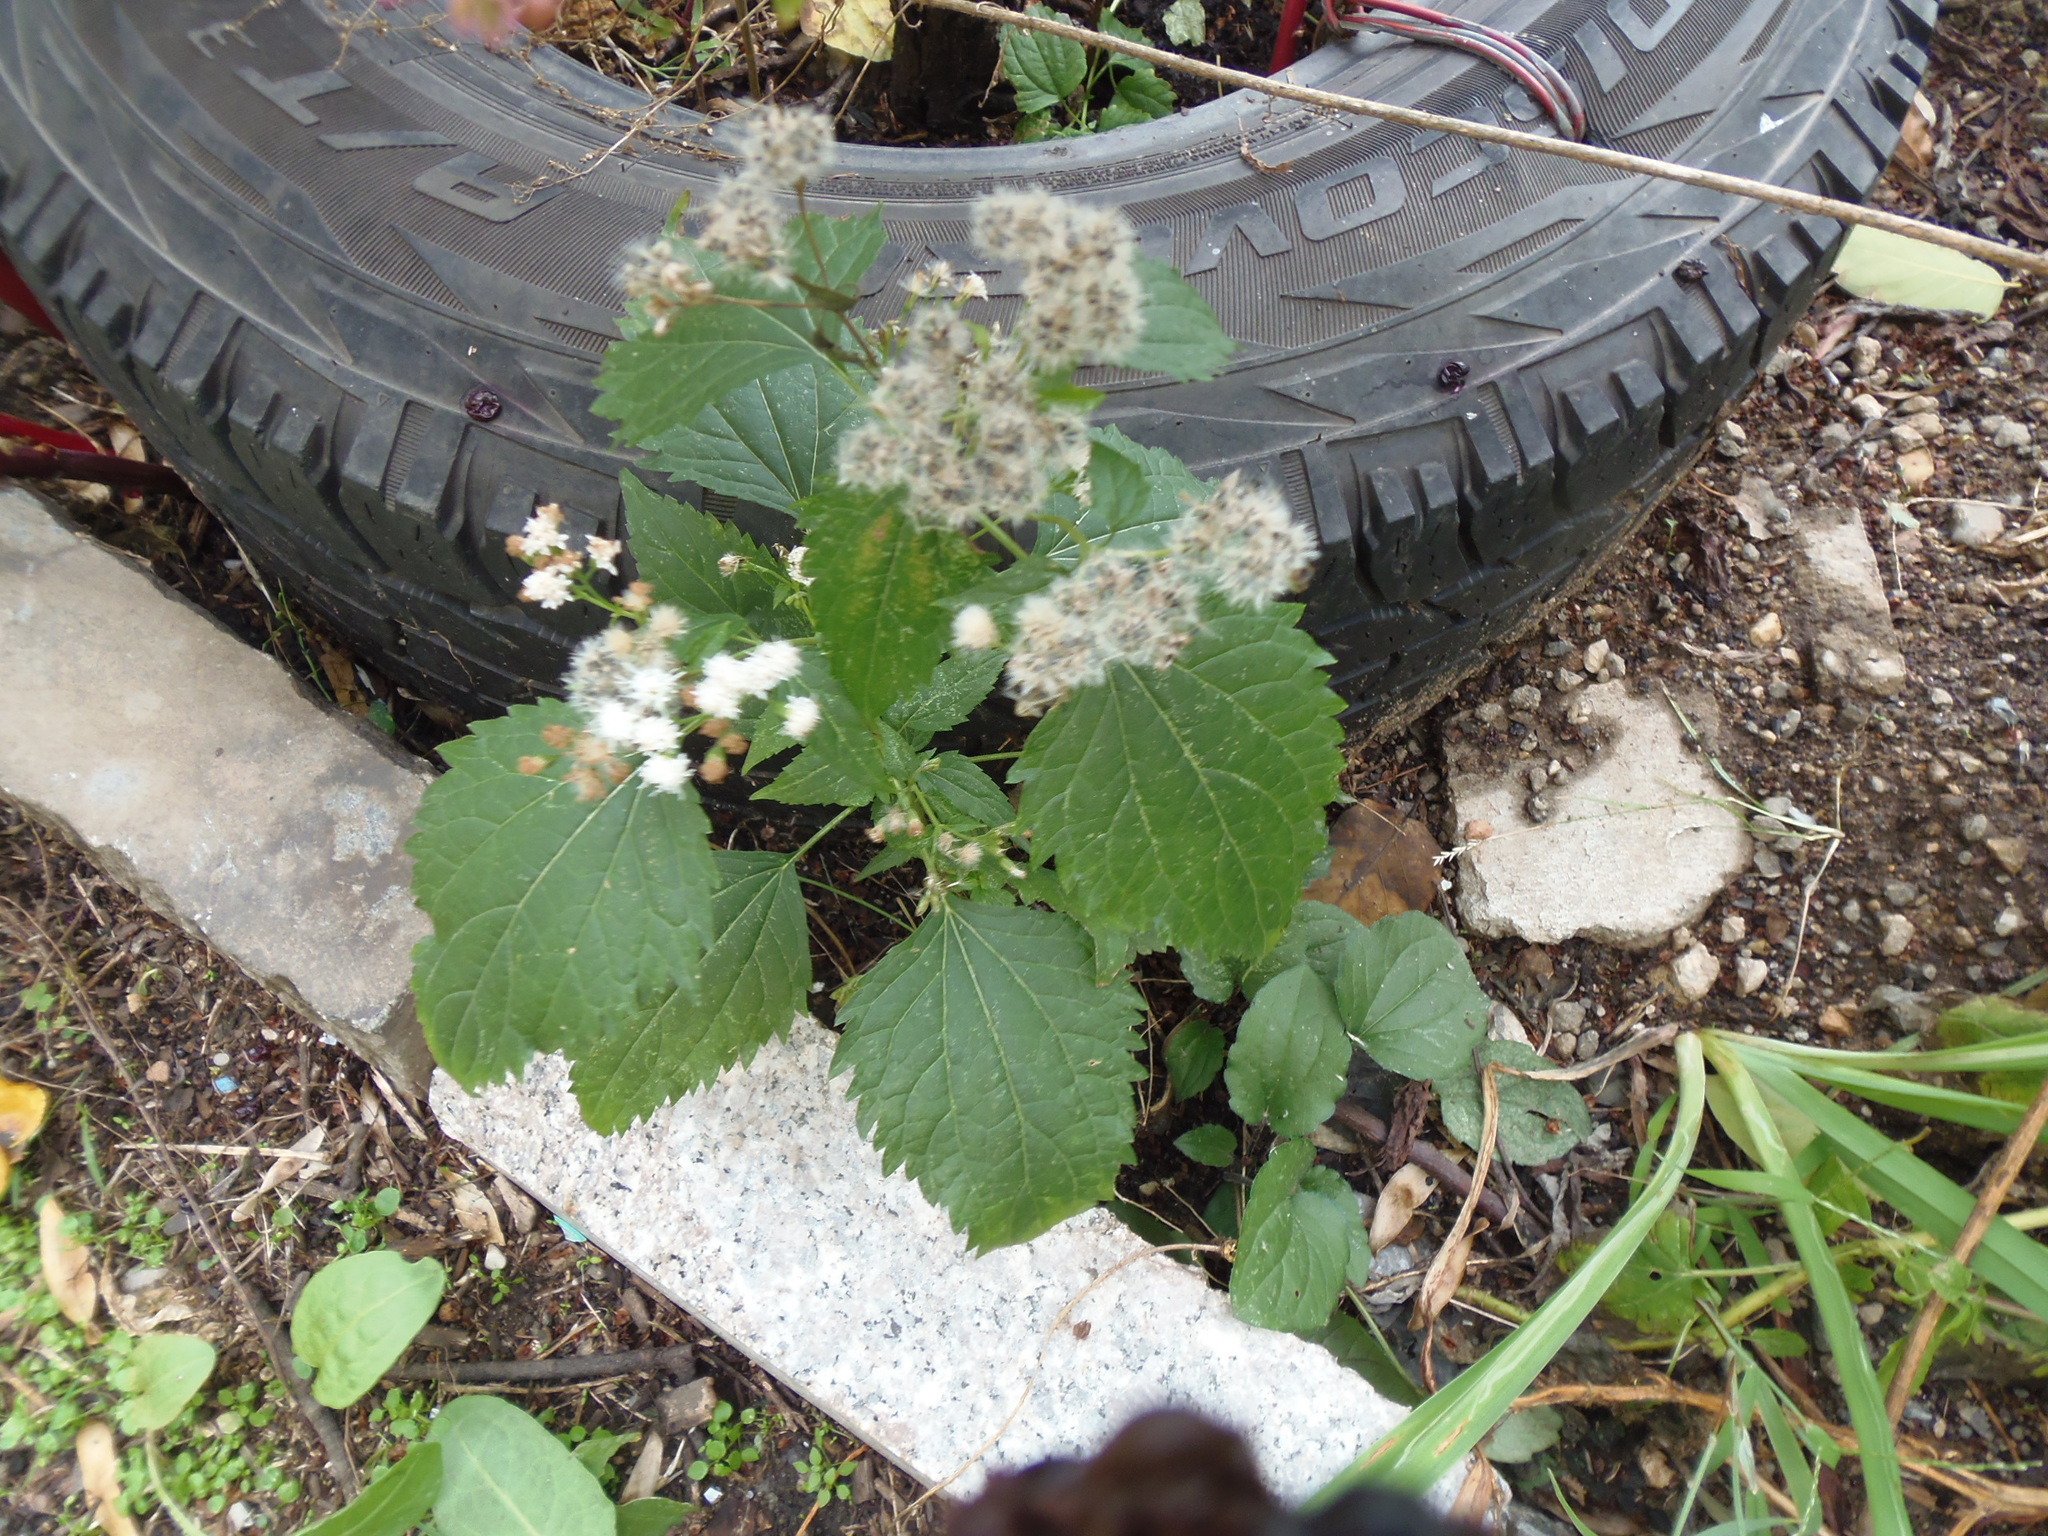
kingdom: Plantae
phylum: Tracheophyta
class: Magnoliopsida
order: Asterales
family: Asteraceae
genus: Ageratina
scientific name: Ageratina altissima
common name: White snakeroot
